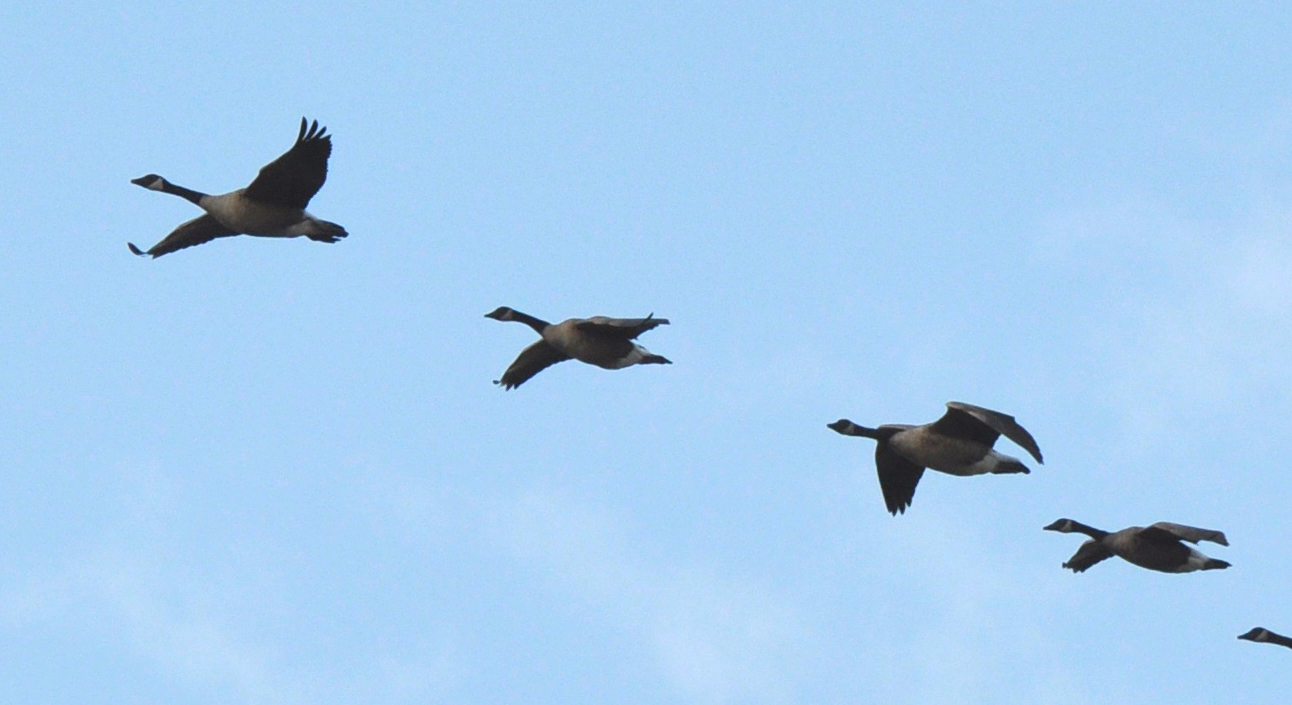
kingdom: Animalia
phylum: Chordata
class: Aves
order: Anseriformes
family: Anatidae
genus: Branta
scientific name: Branta canadensis
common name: Canada goose
